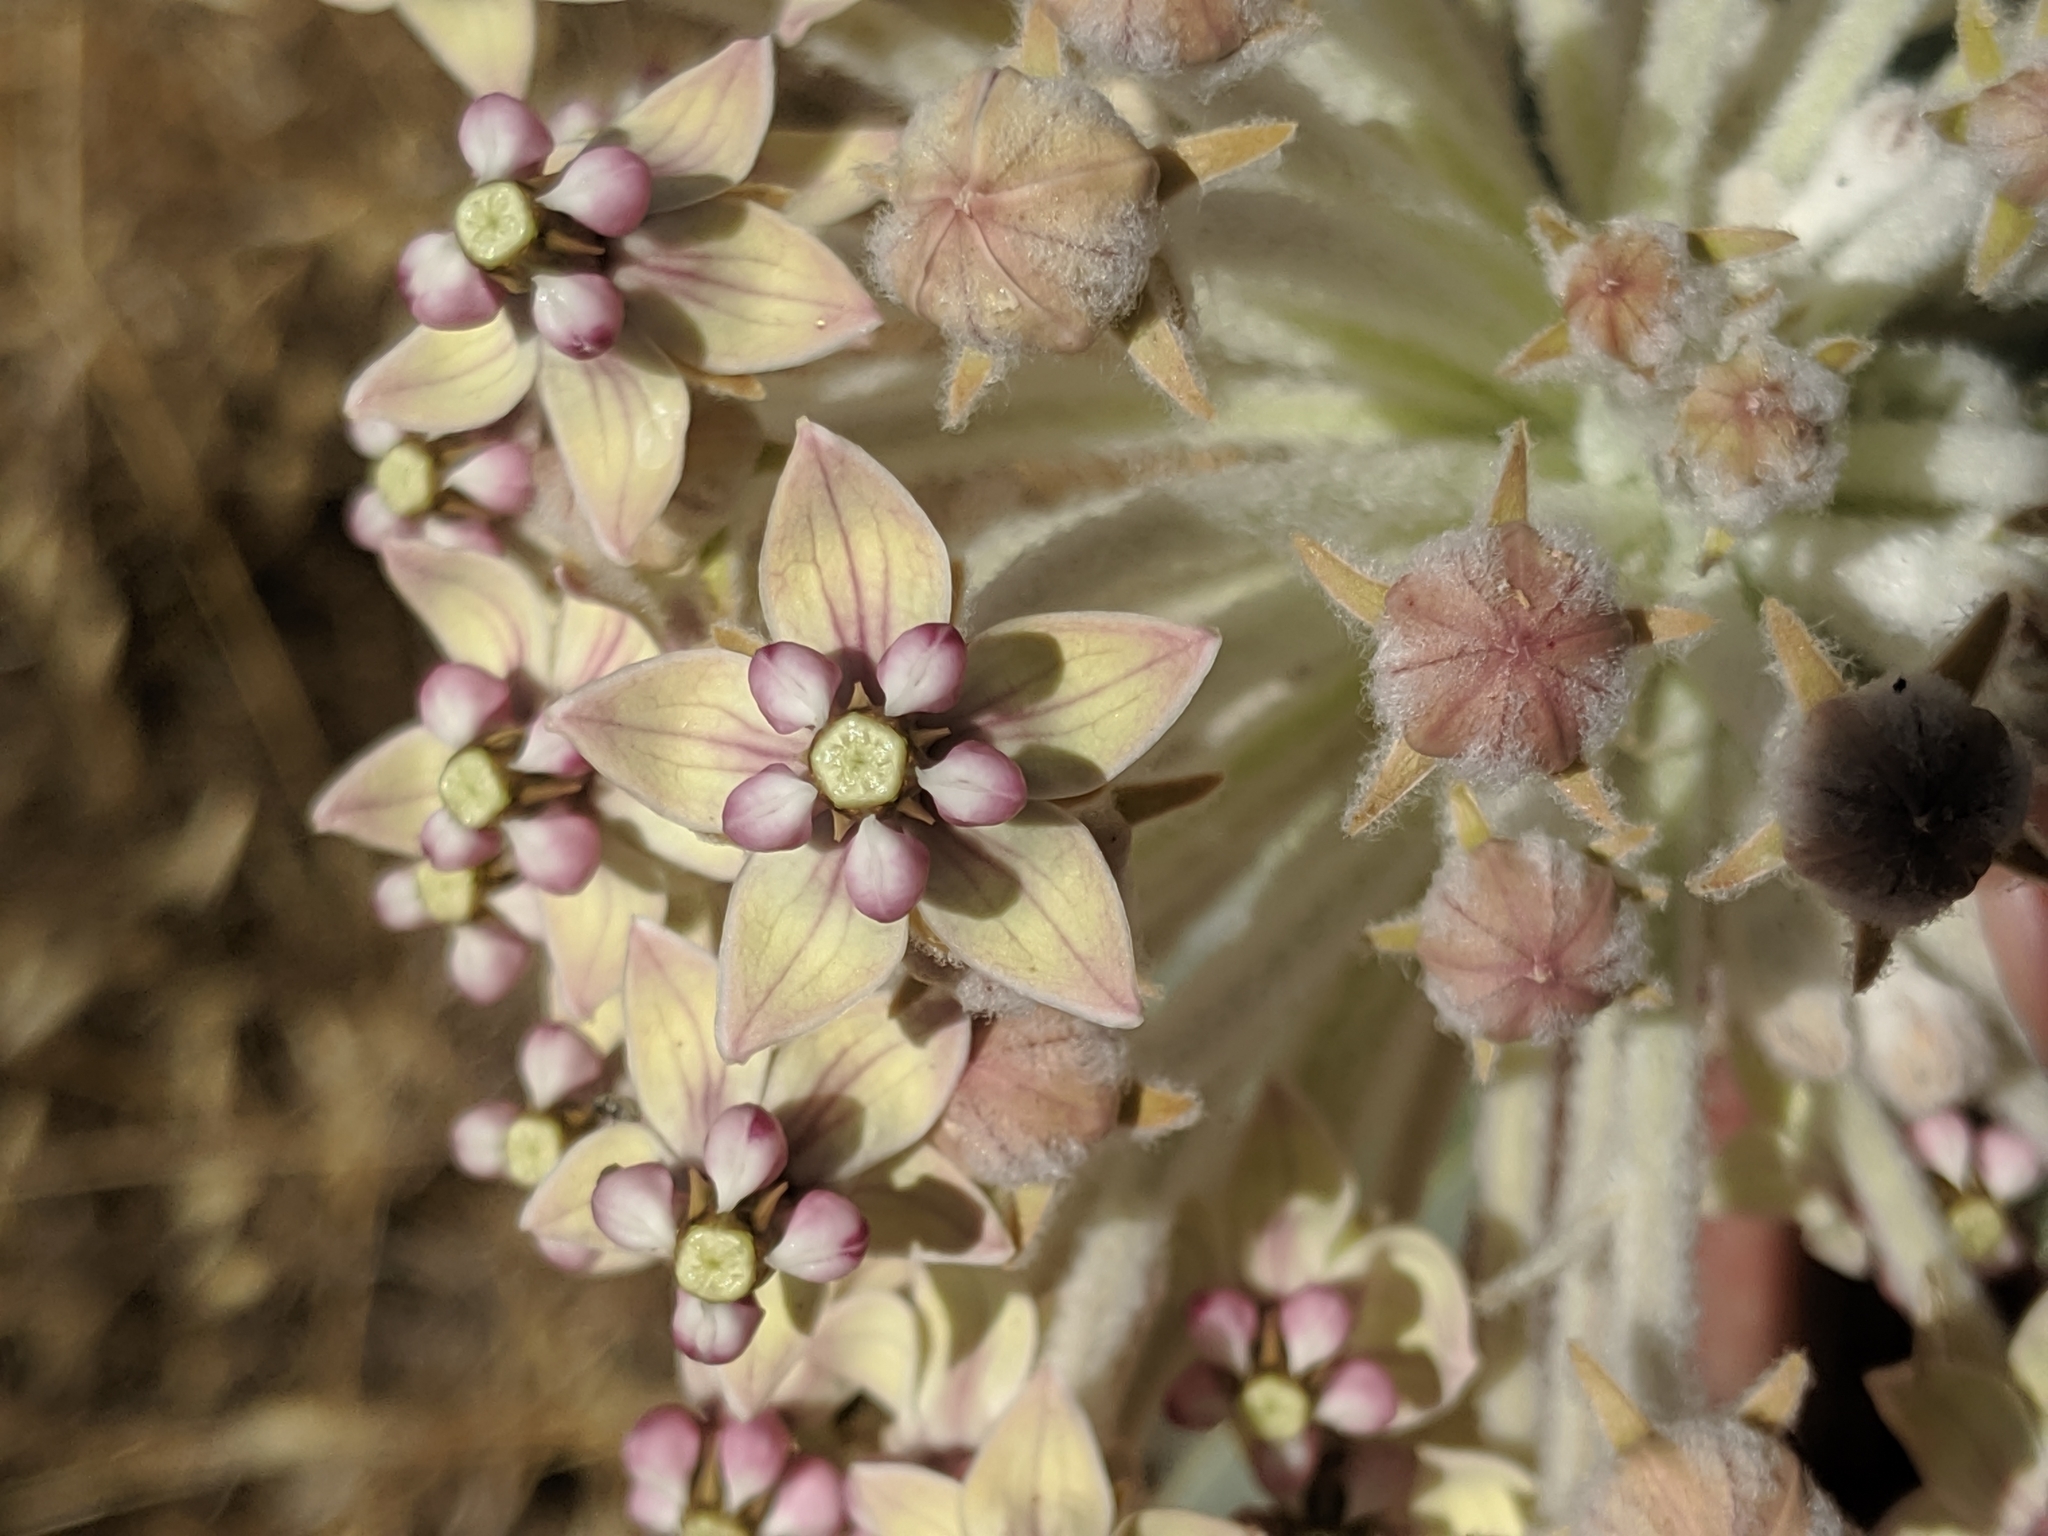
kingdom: Plantae
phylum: Tracheophyta
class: Magnoliopsida
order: Gentianales
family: Apocynaceae
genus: Asclepias
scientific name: Asclepias eriocarpa
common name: Indian milkweed
